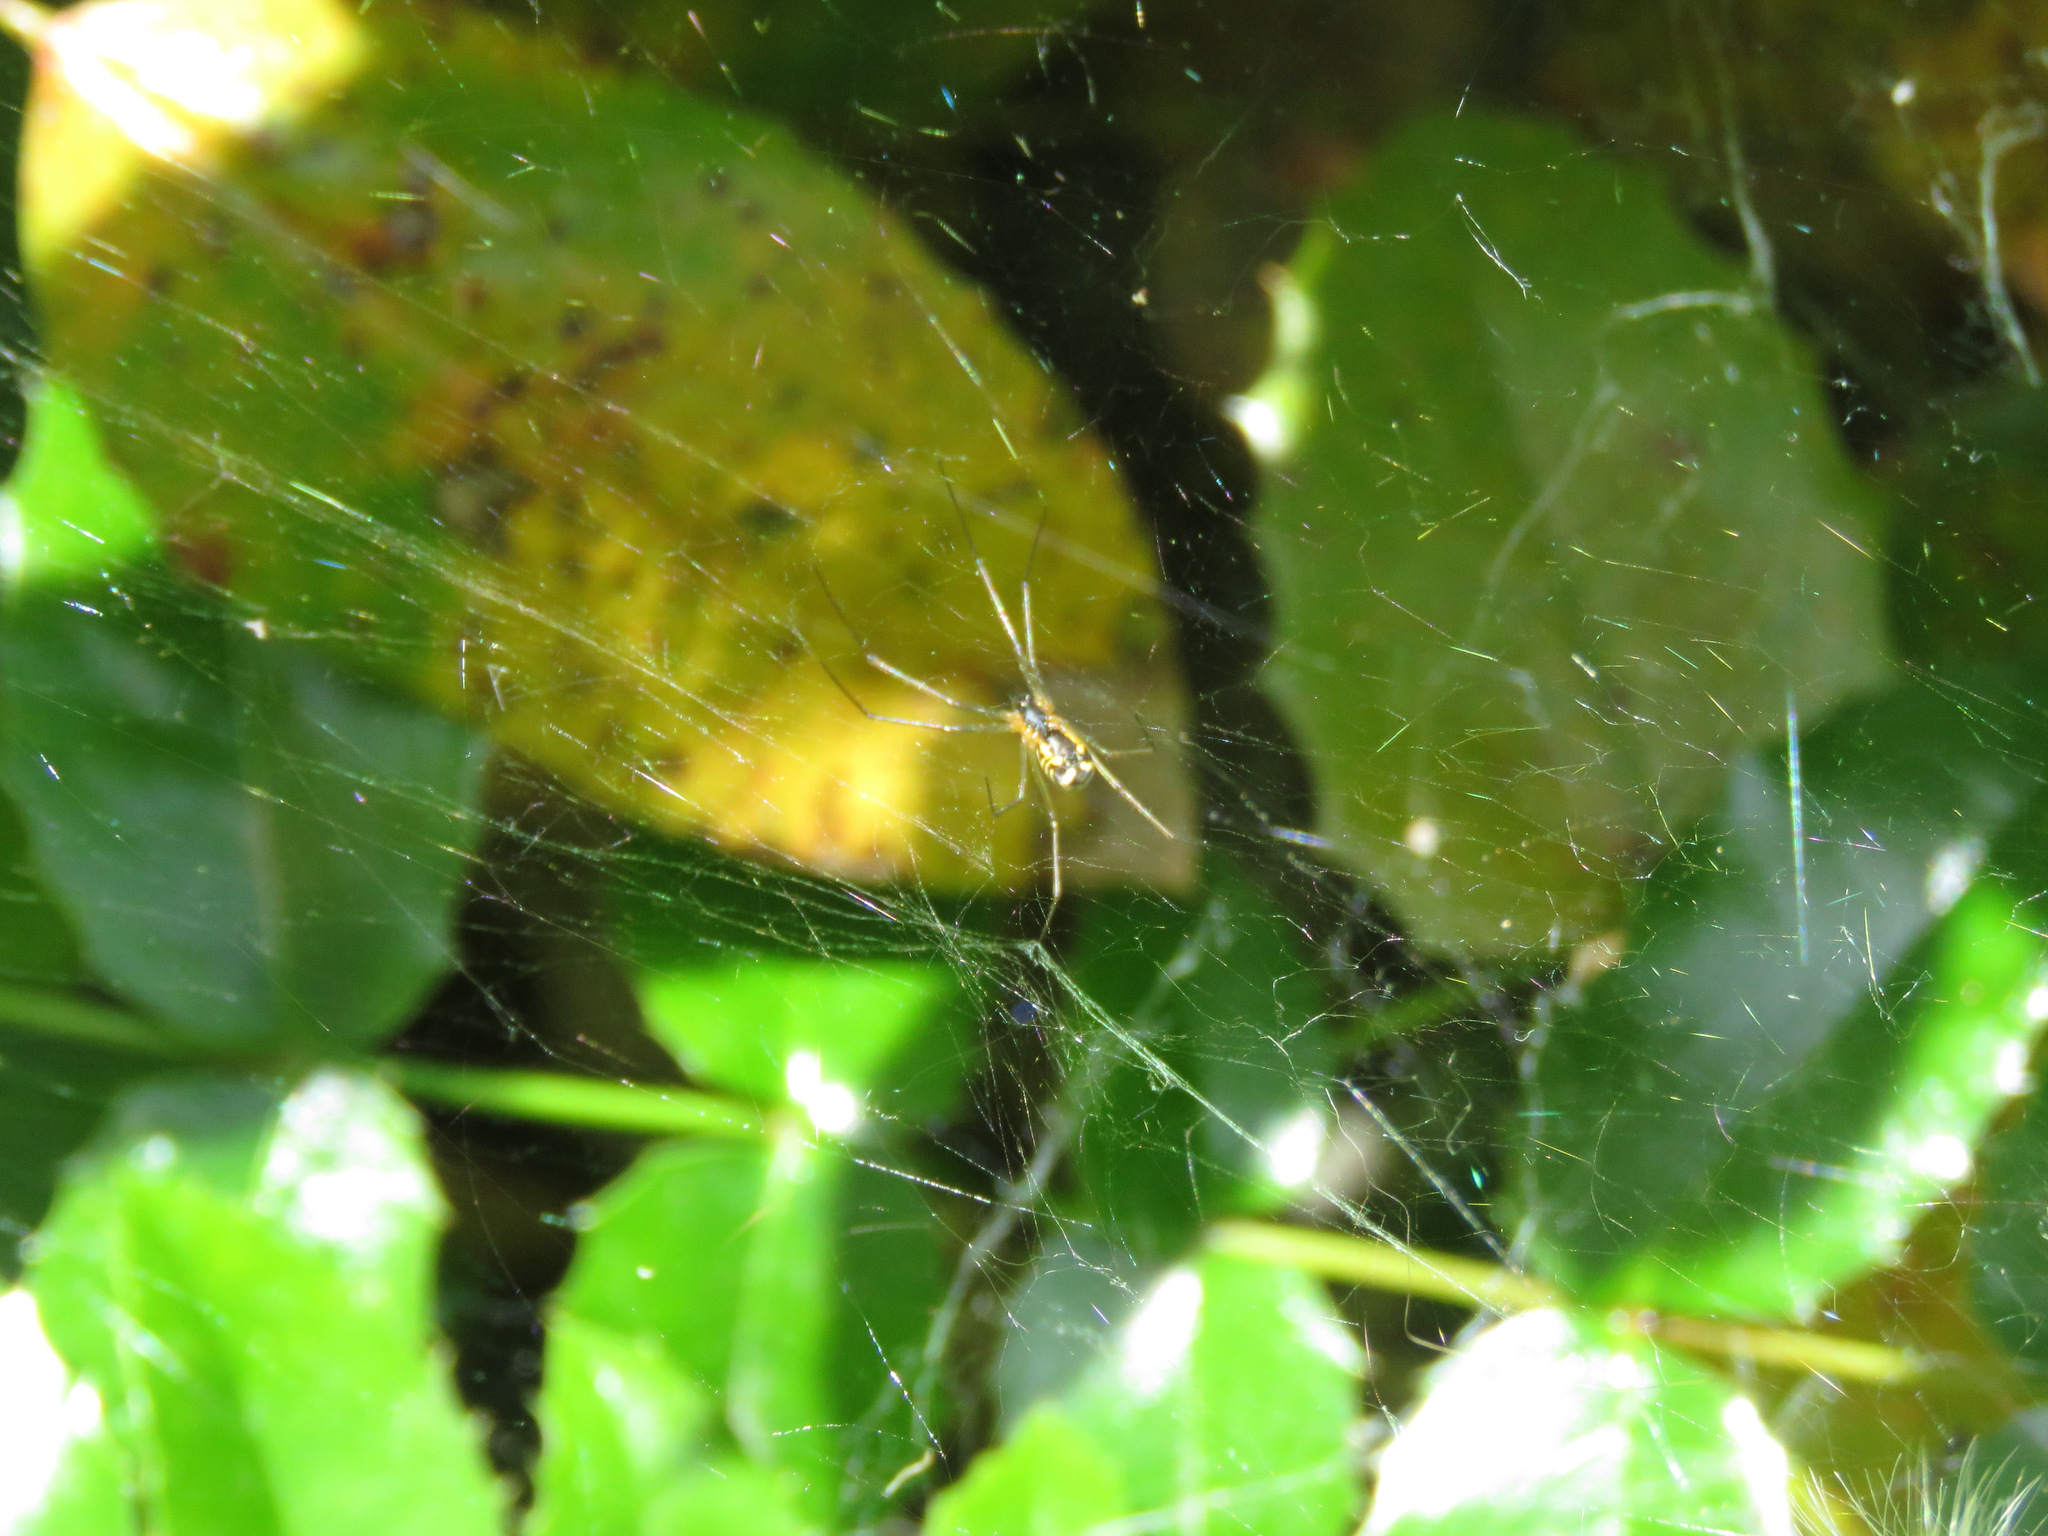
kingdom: Animalia
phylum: Arthropoda
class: Arachnida
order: Araneae
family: Linyphiidae
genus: Neriene
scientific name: Neriene radiata
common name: Filmy dome spider
